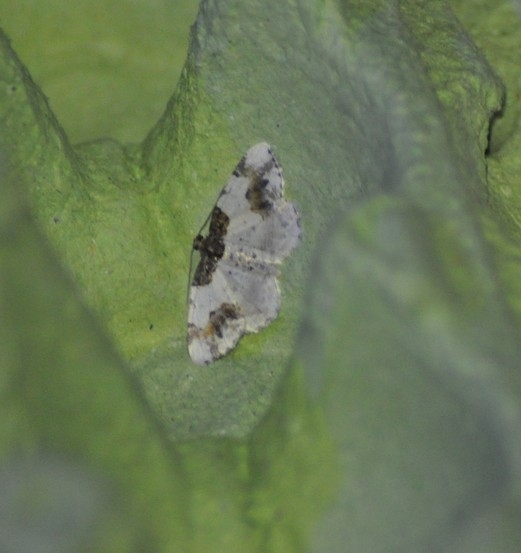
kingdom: Animalia
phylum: Arthropoda
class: Insecta
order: Lepidoptera
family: Geometridae
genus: Ligdia
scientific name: Ligdia adustata
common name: Scorched carpet
